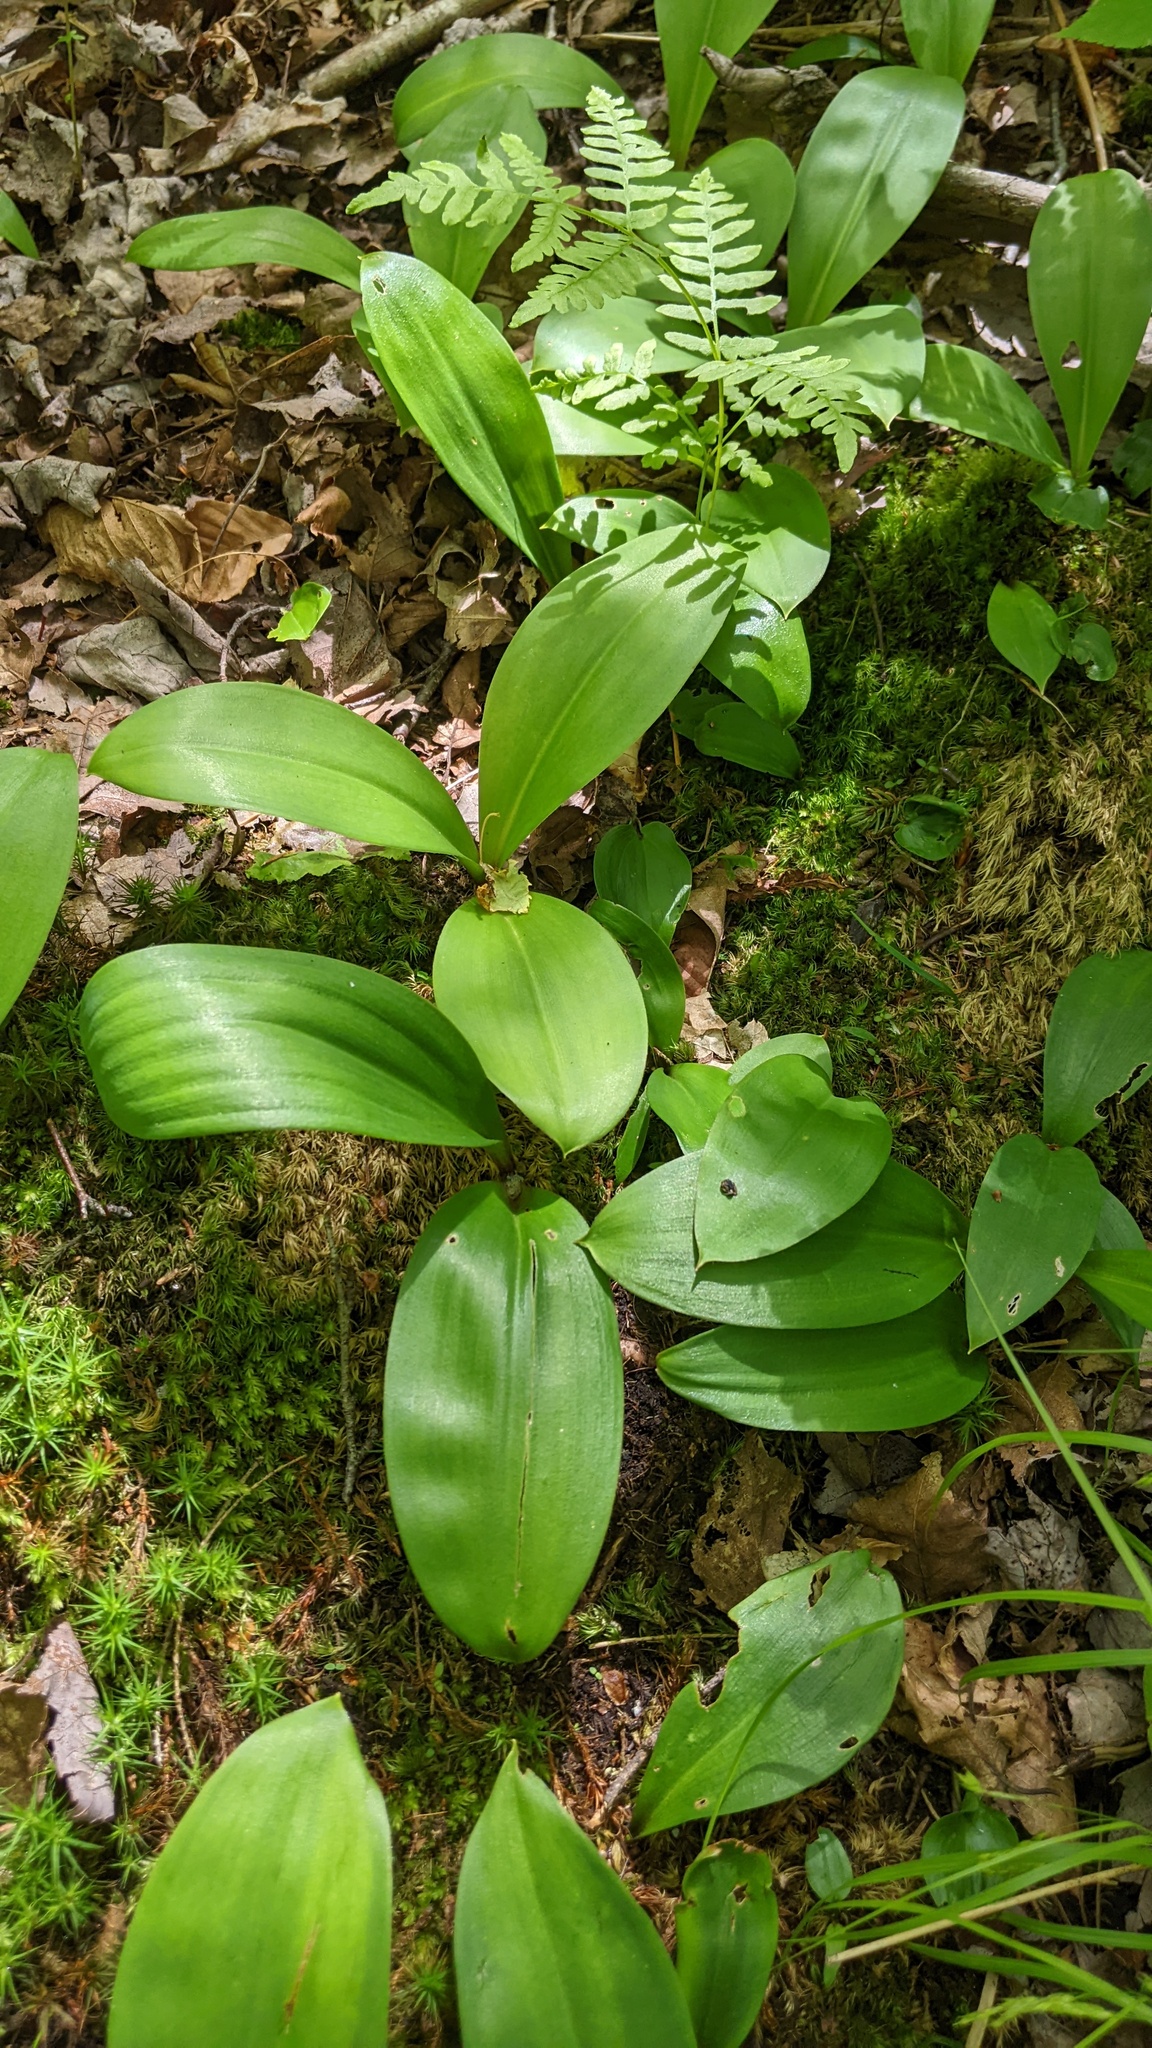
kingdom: Plantae
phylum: Tracheophyta
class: Liliopsida
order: Liliales
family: Liliaceae
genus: Clintonia
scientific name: Clintonia borealis
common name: Yellow clintonia
